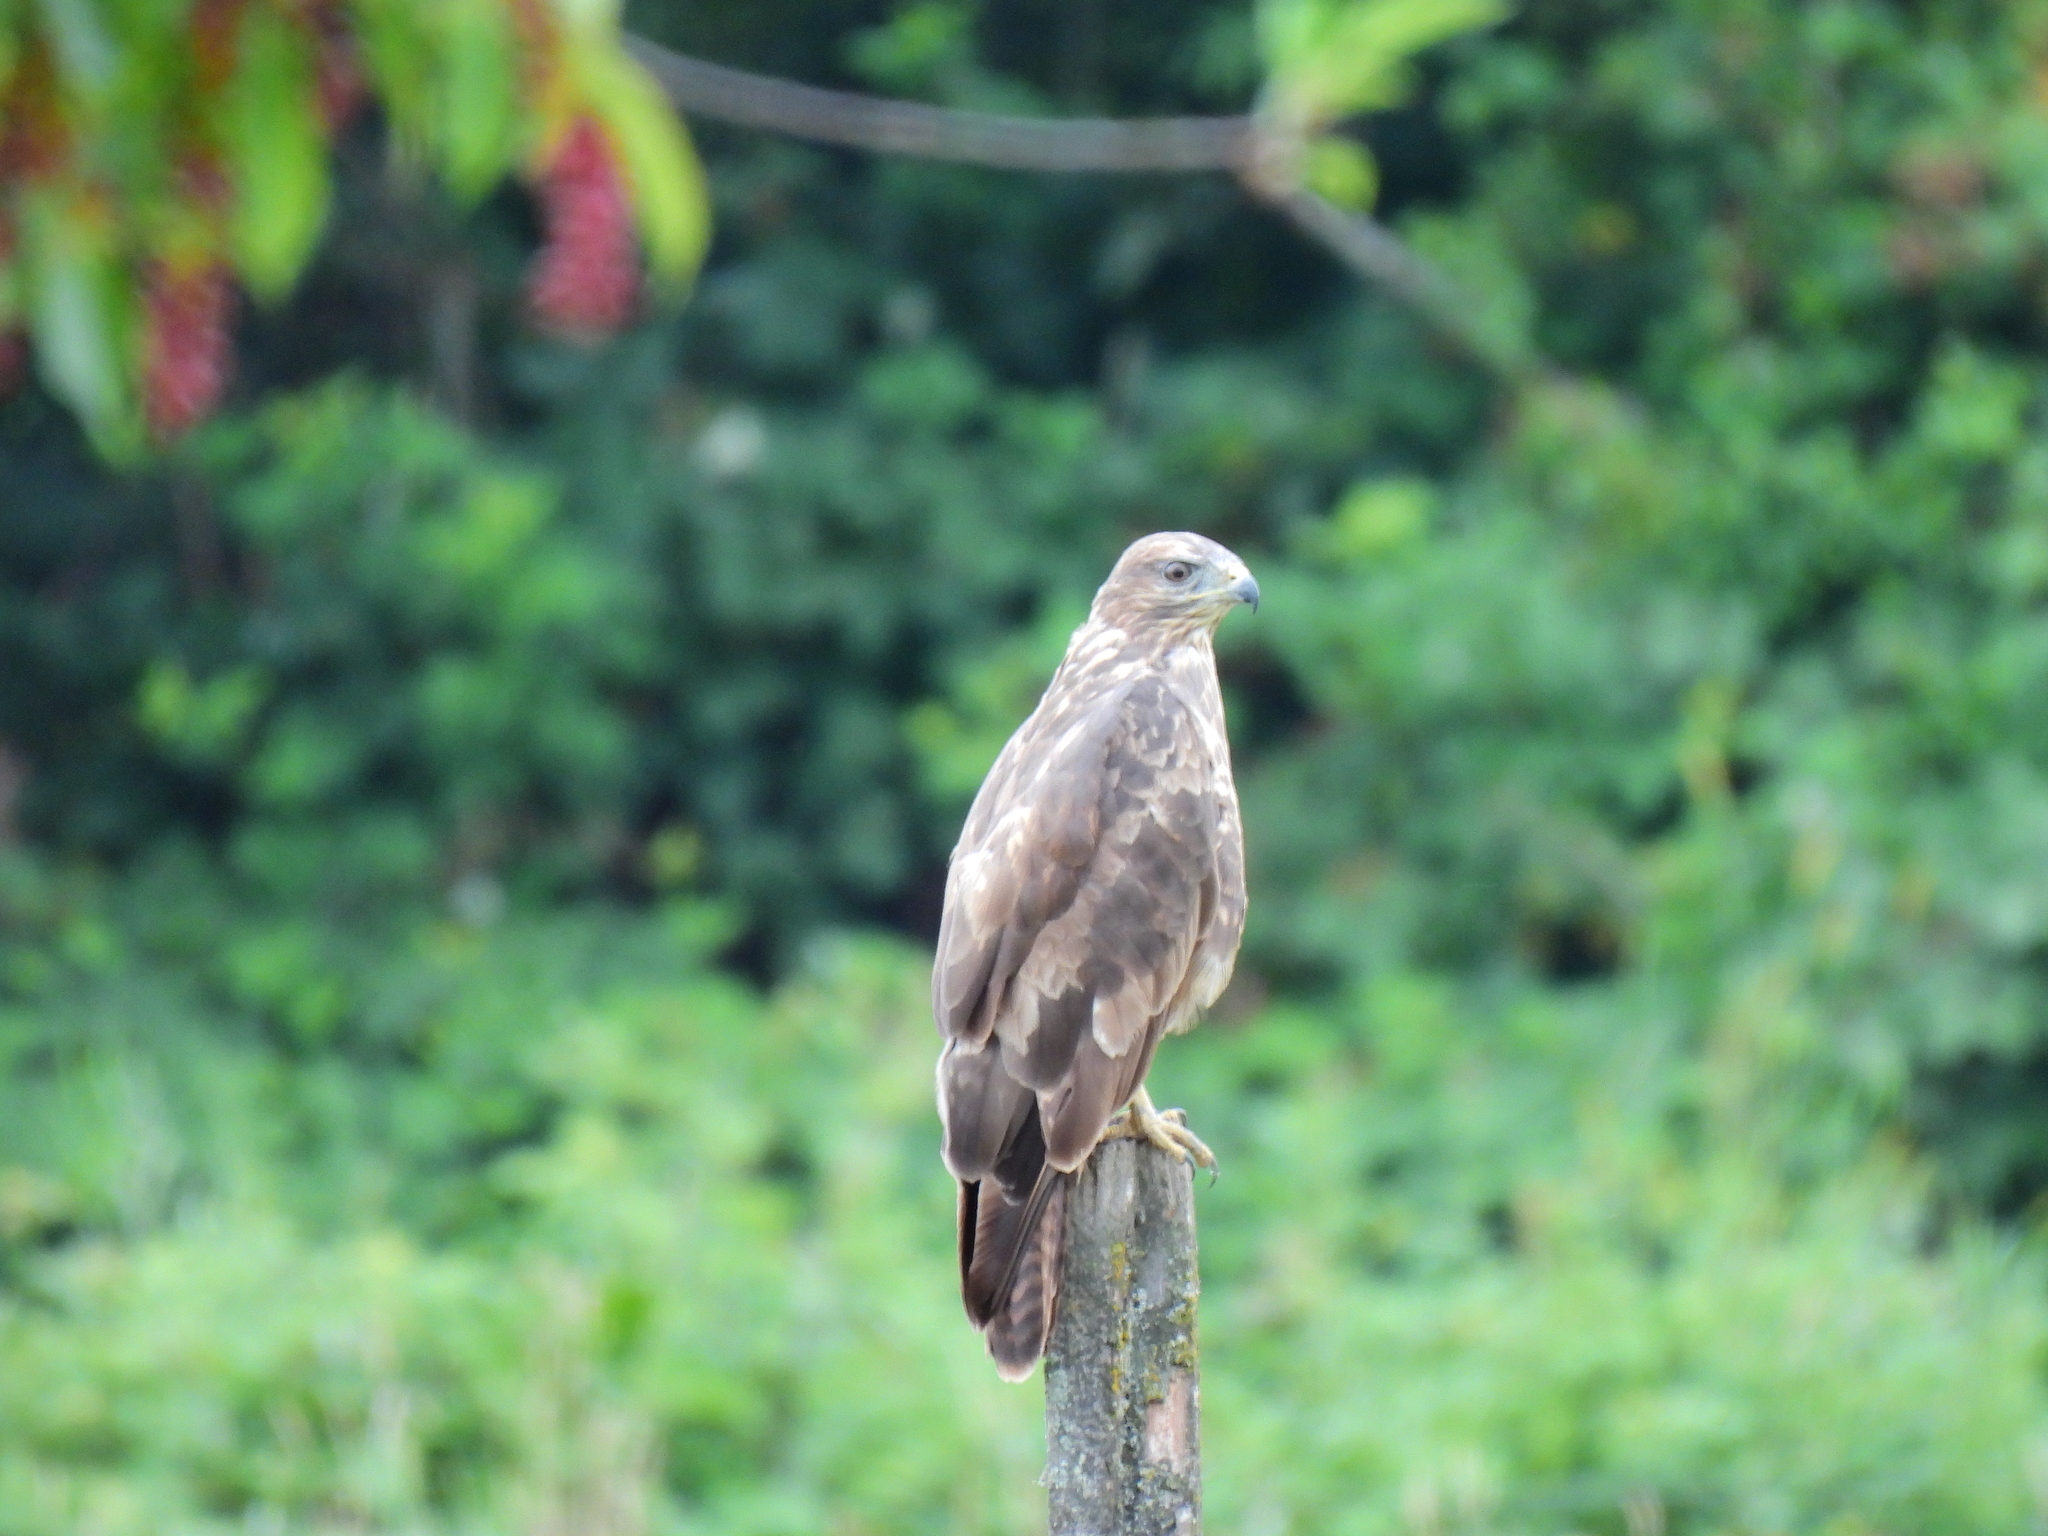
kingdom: Animalia
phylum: Chordata
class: Aves
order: Accipitriformes
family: Accipitridae
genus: Buteo
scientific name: Buteo buteo
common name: Common buzzard
